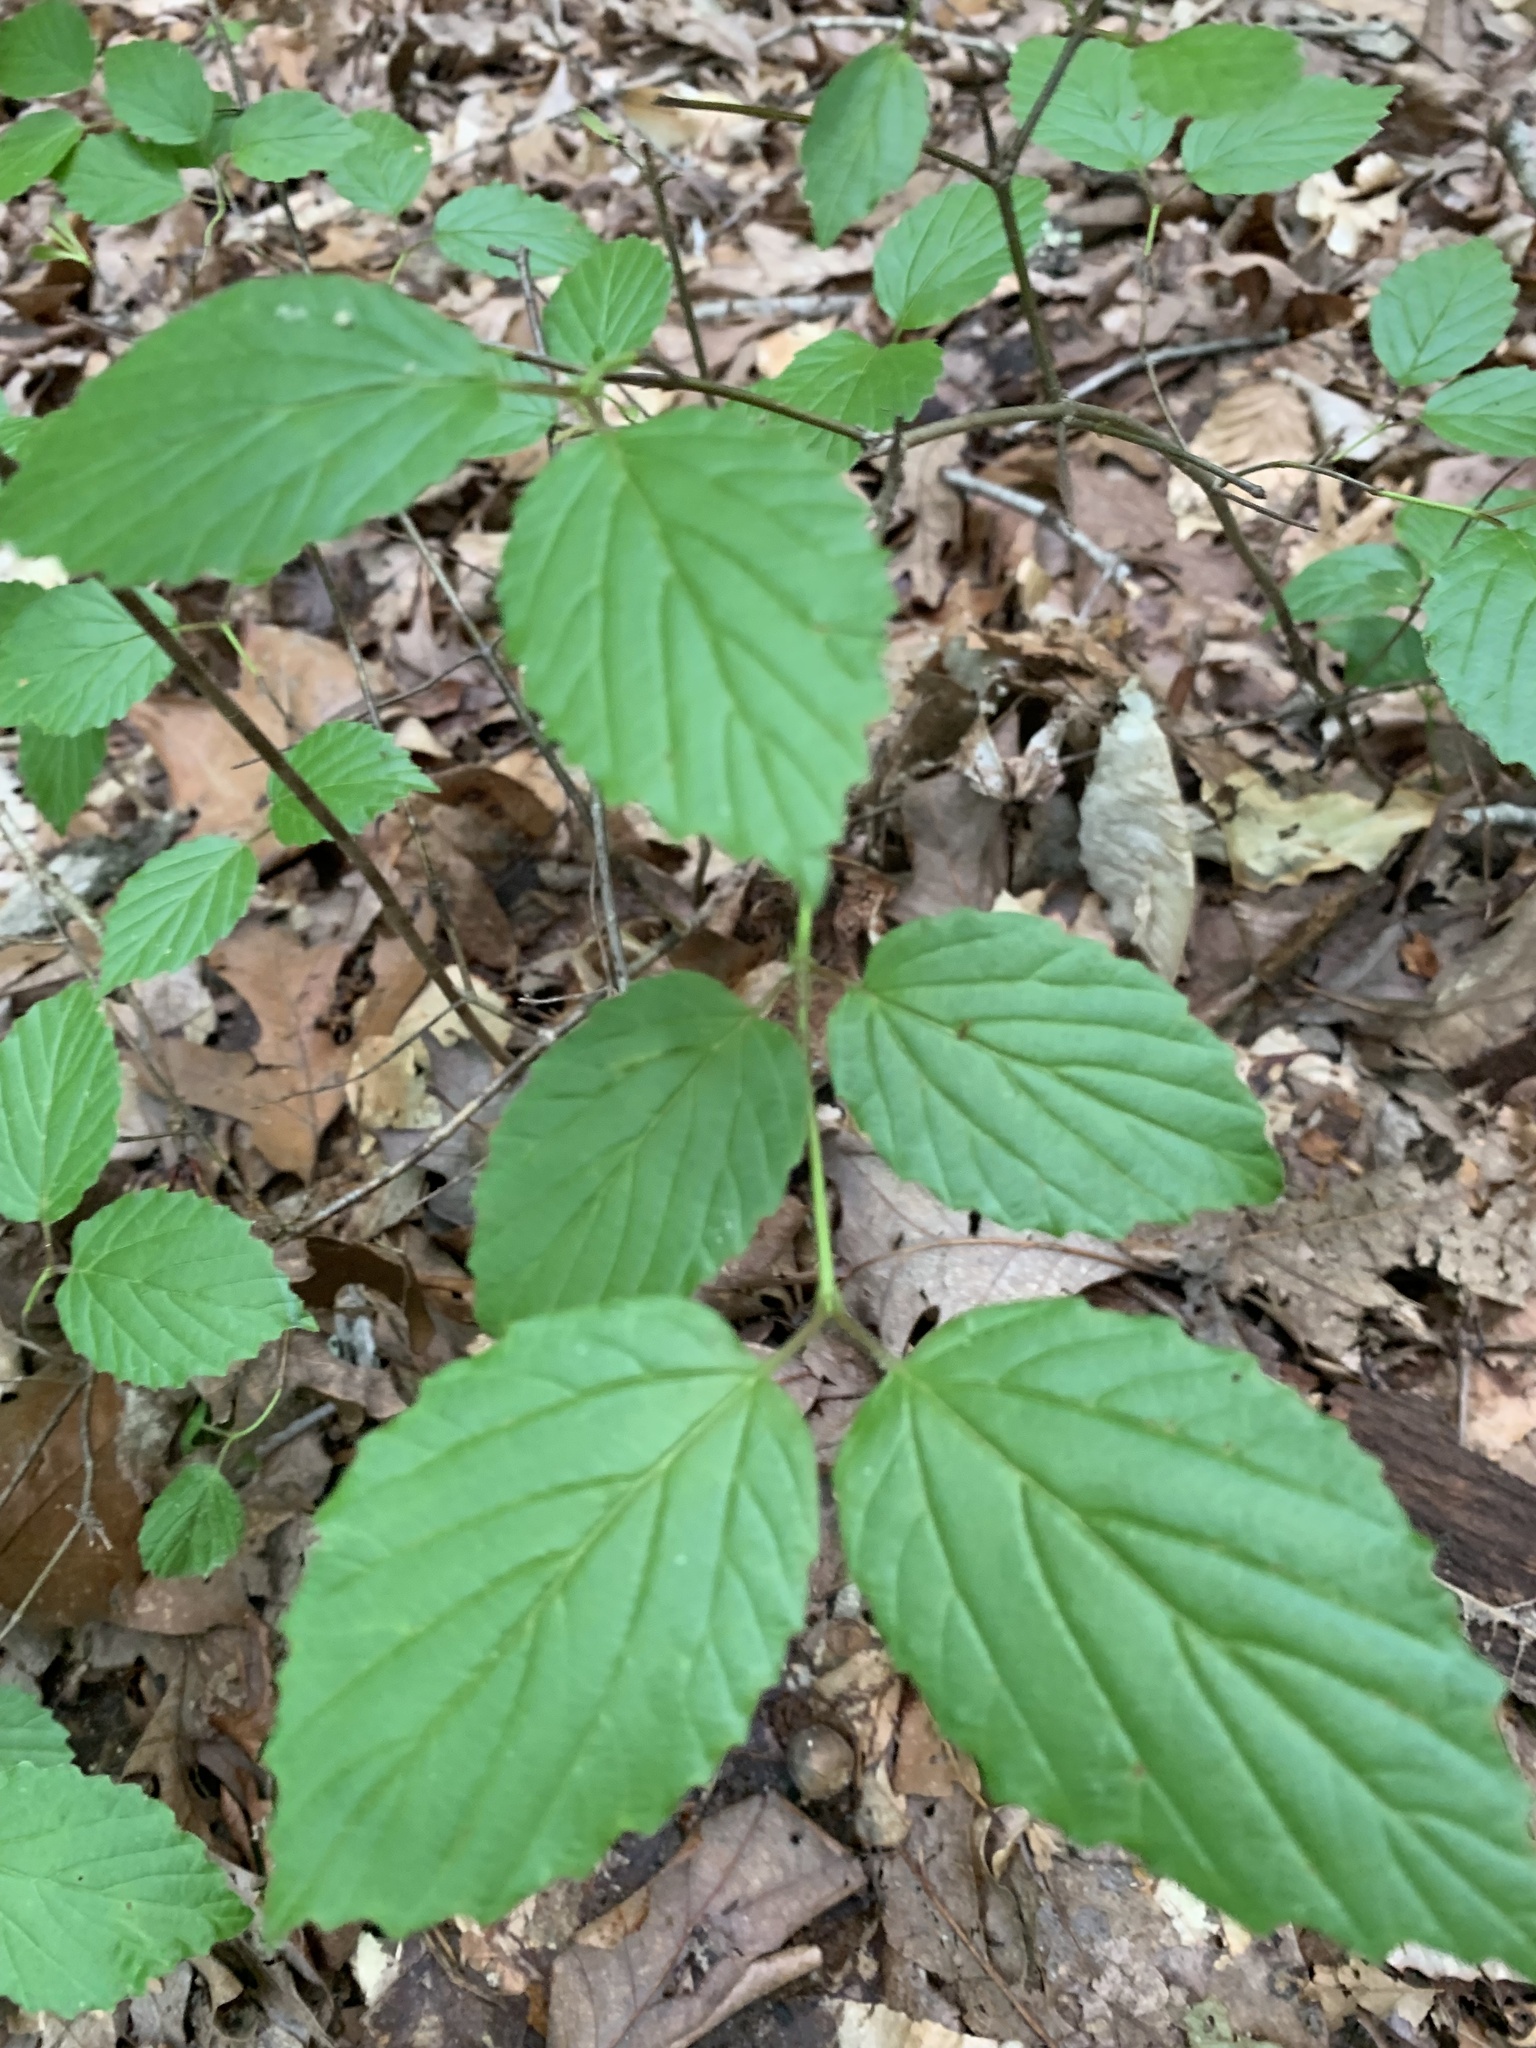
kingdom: Plantae
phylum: Tracheophyta
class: Magnoliopsida
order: Dipsacales
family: Viburnaceae
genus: Viburnum
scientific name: Viburnum rafinesqueanum
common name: Downy arrow-wood
